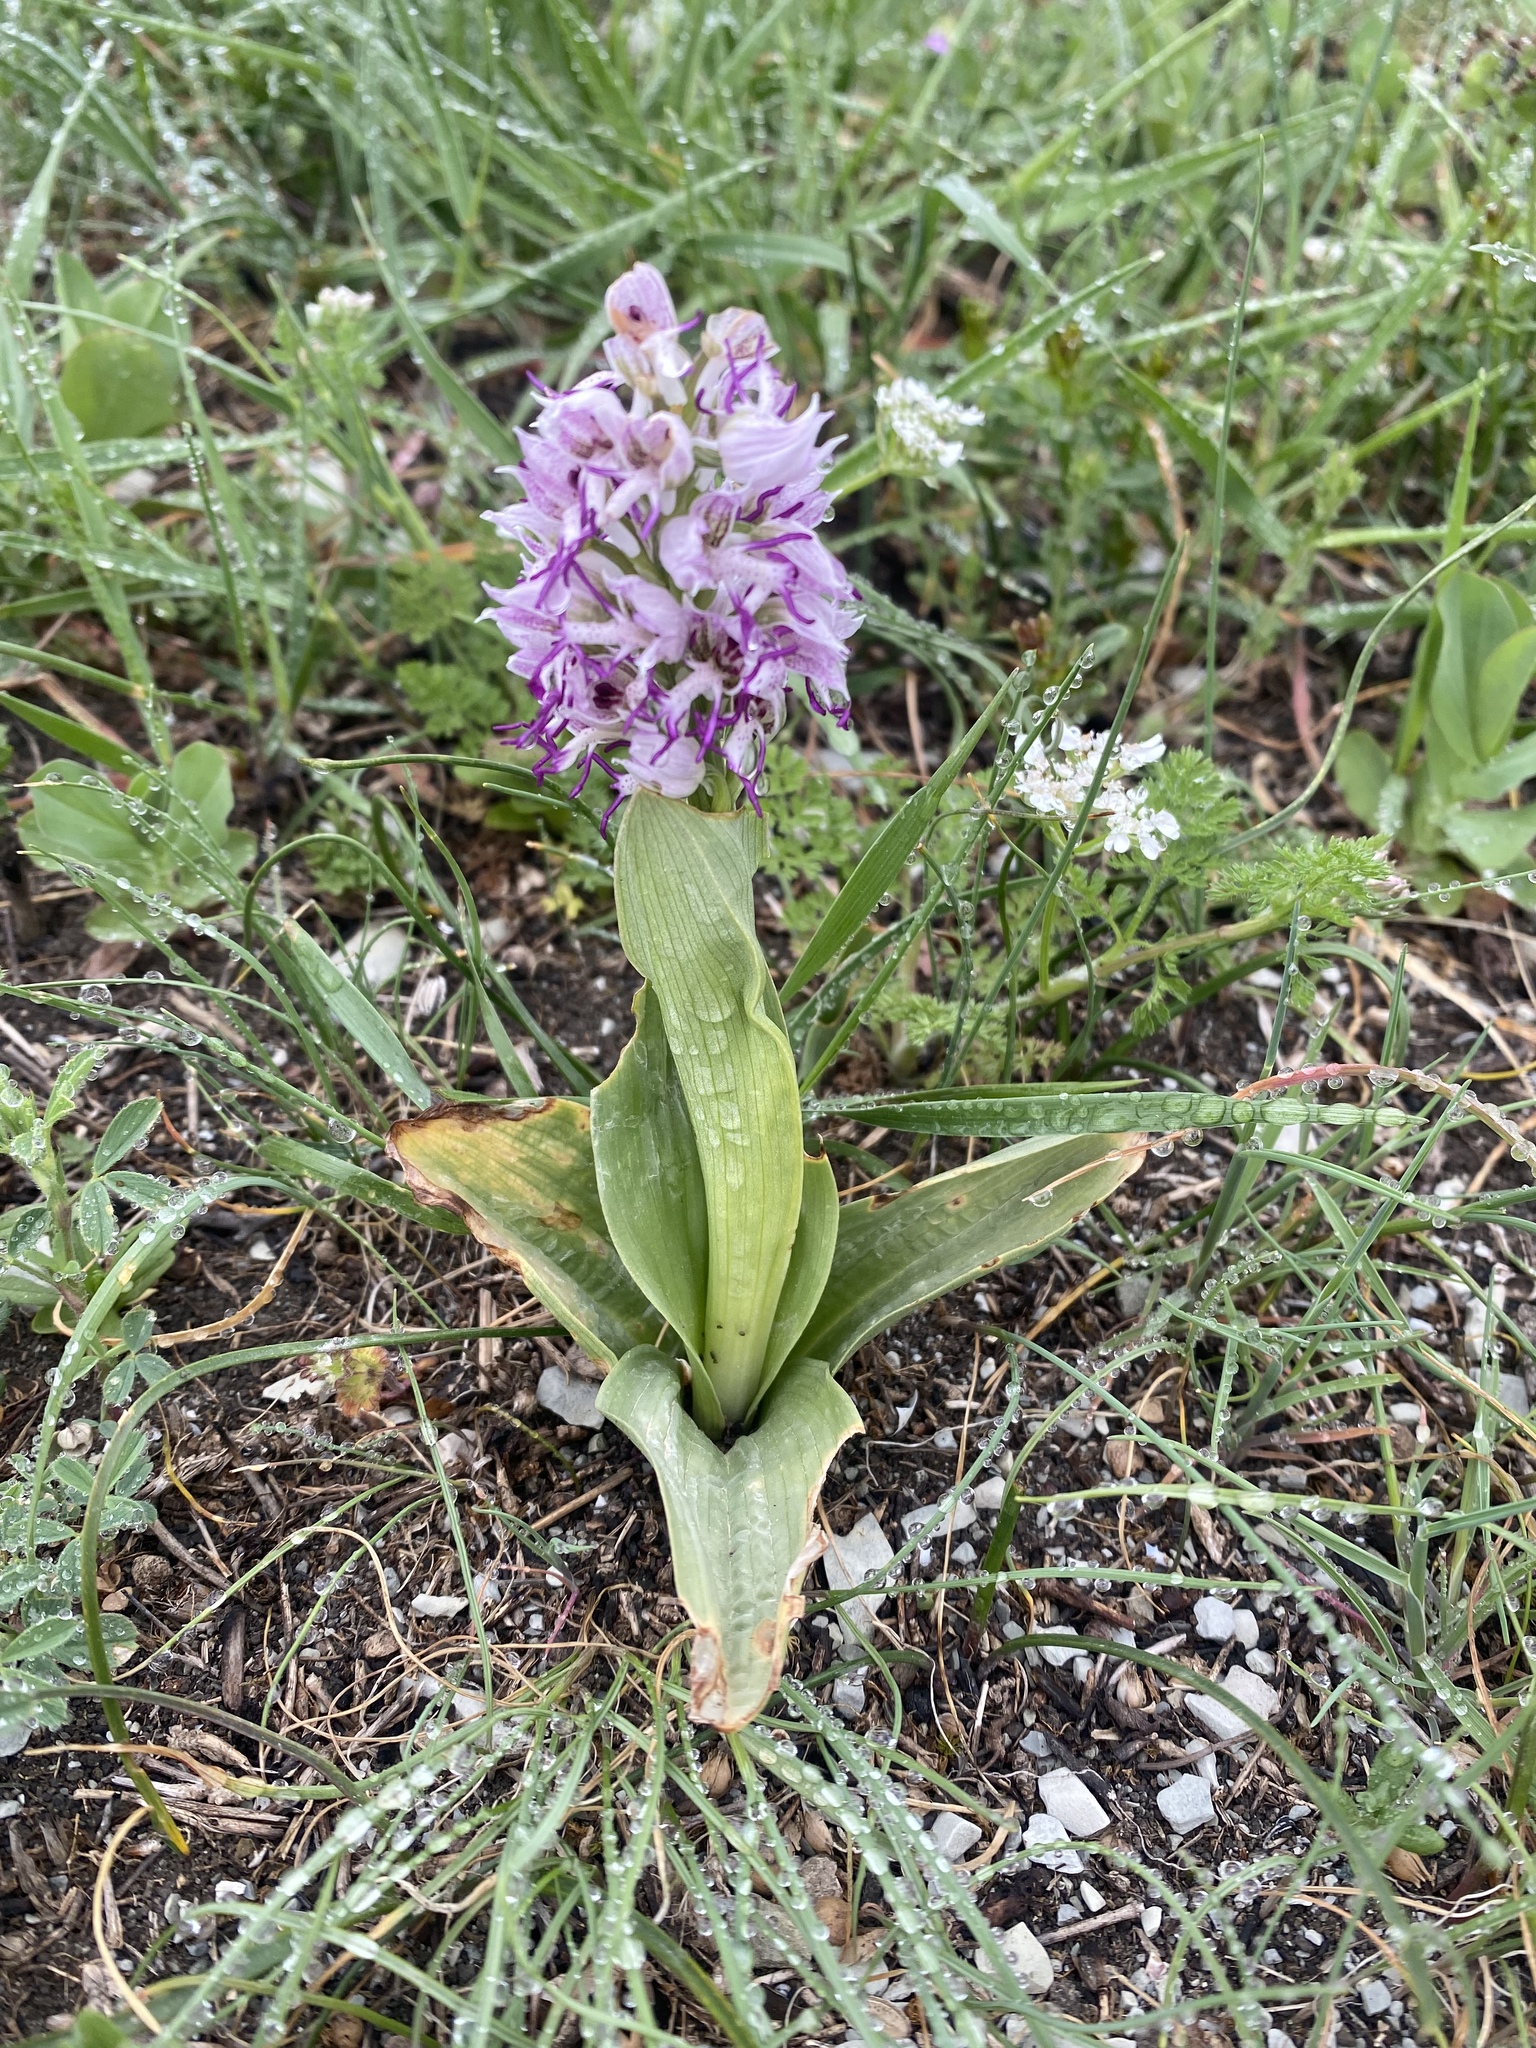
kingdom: Plantae
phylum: Tracheophyta
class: Liliopsida
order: Asparagales
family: Orchidaceae
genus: Orchis
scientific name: Orchis simia
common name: Monkey orchid
